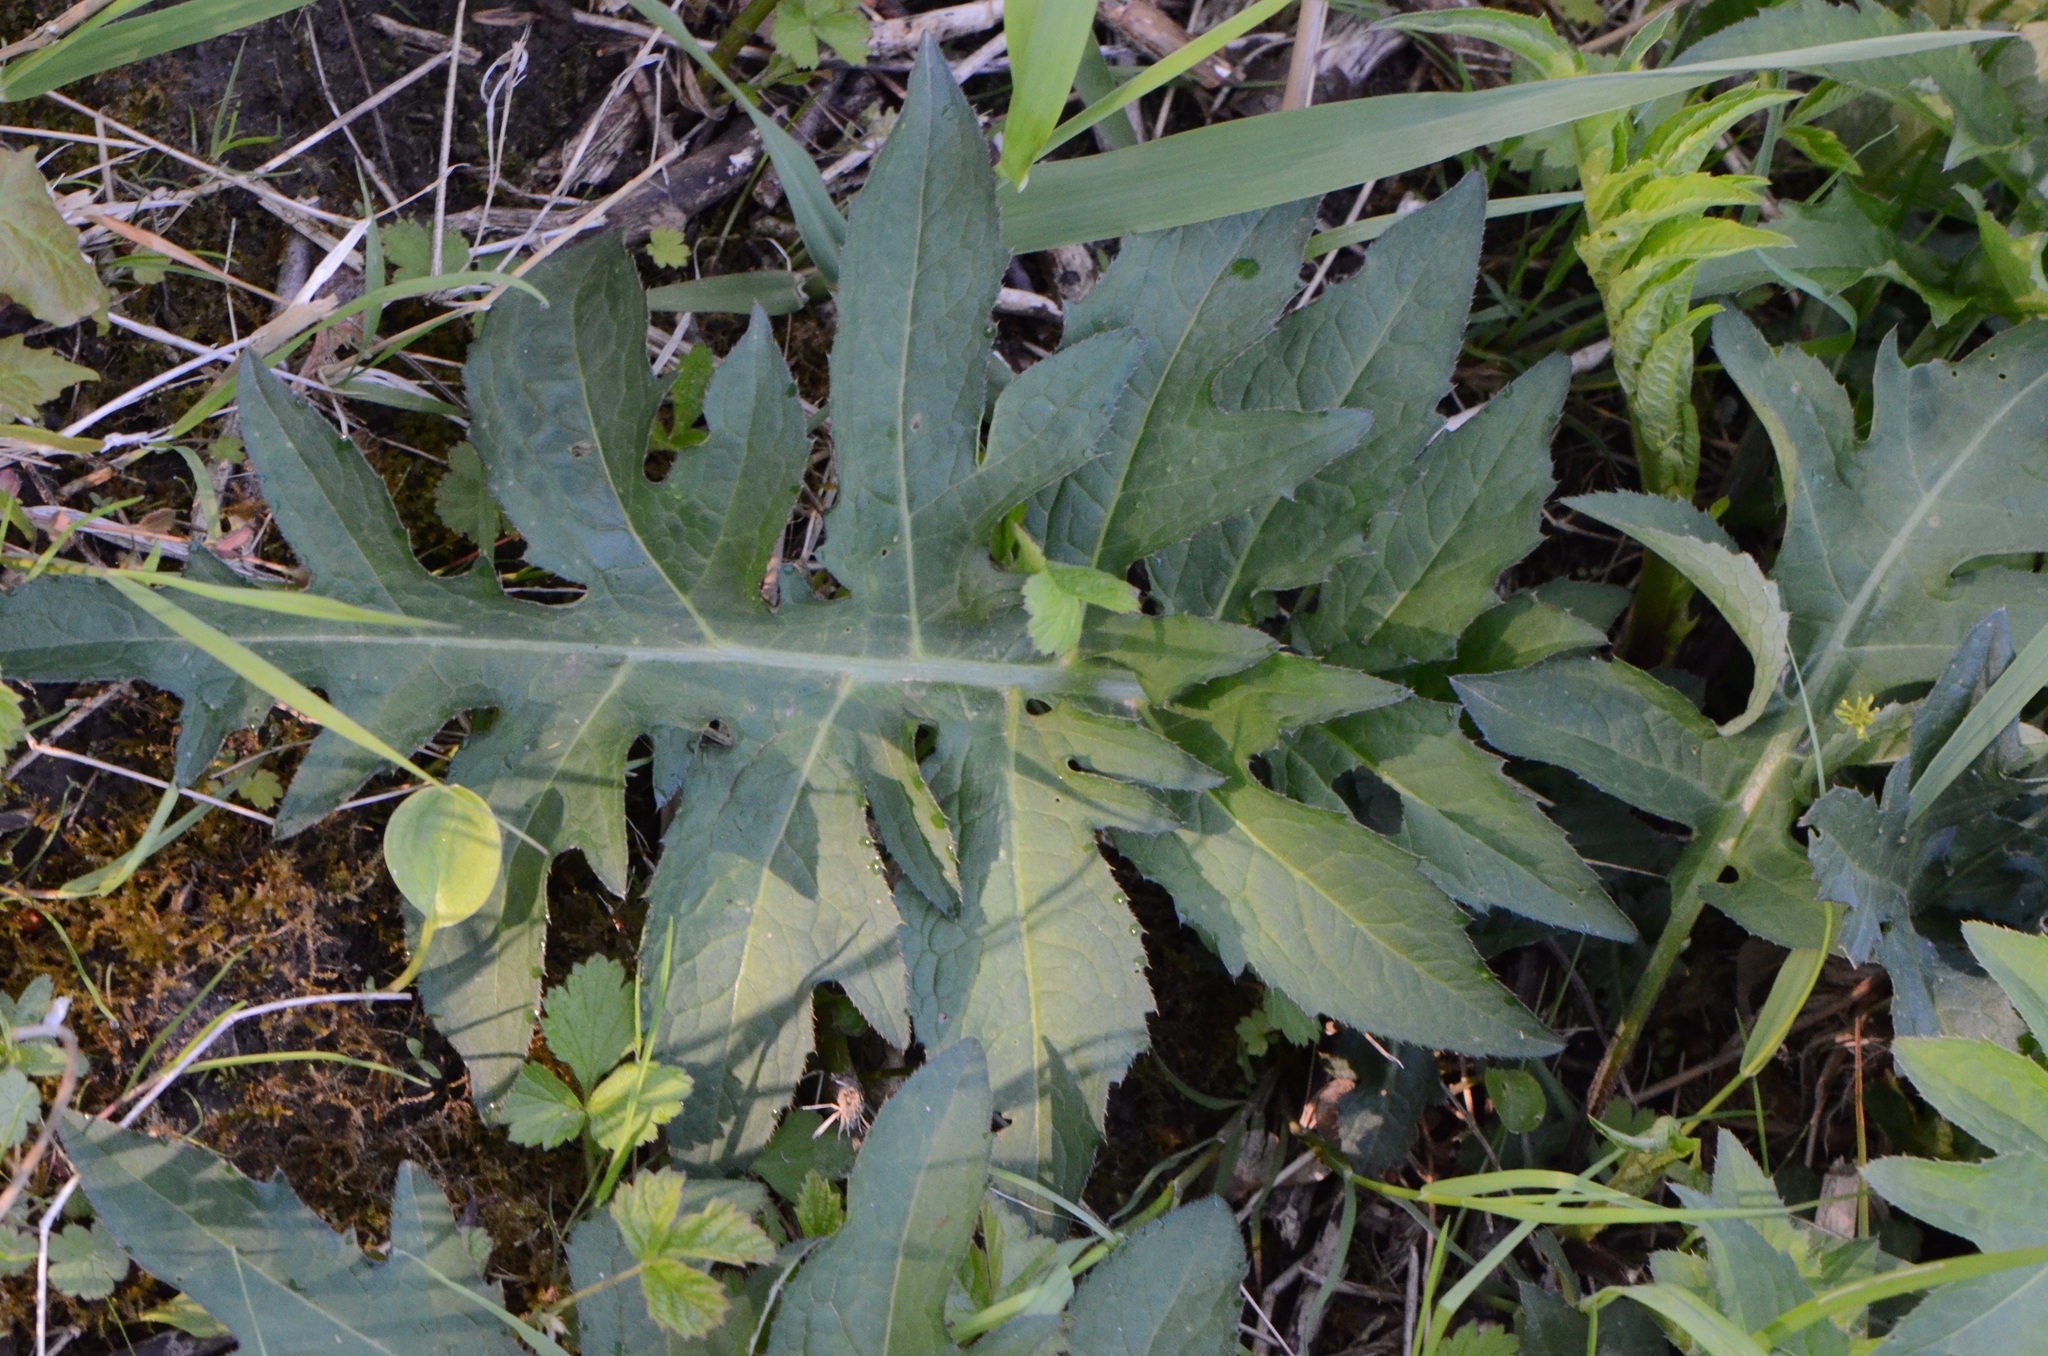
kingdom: Plantae
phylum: Tracheophyta
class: Magnoliopsida
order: Asterales
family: Asteraceae
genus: Cirsium
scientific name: Cirsium oleraceum
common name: Cabbage thistle
